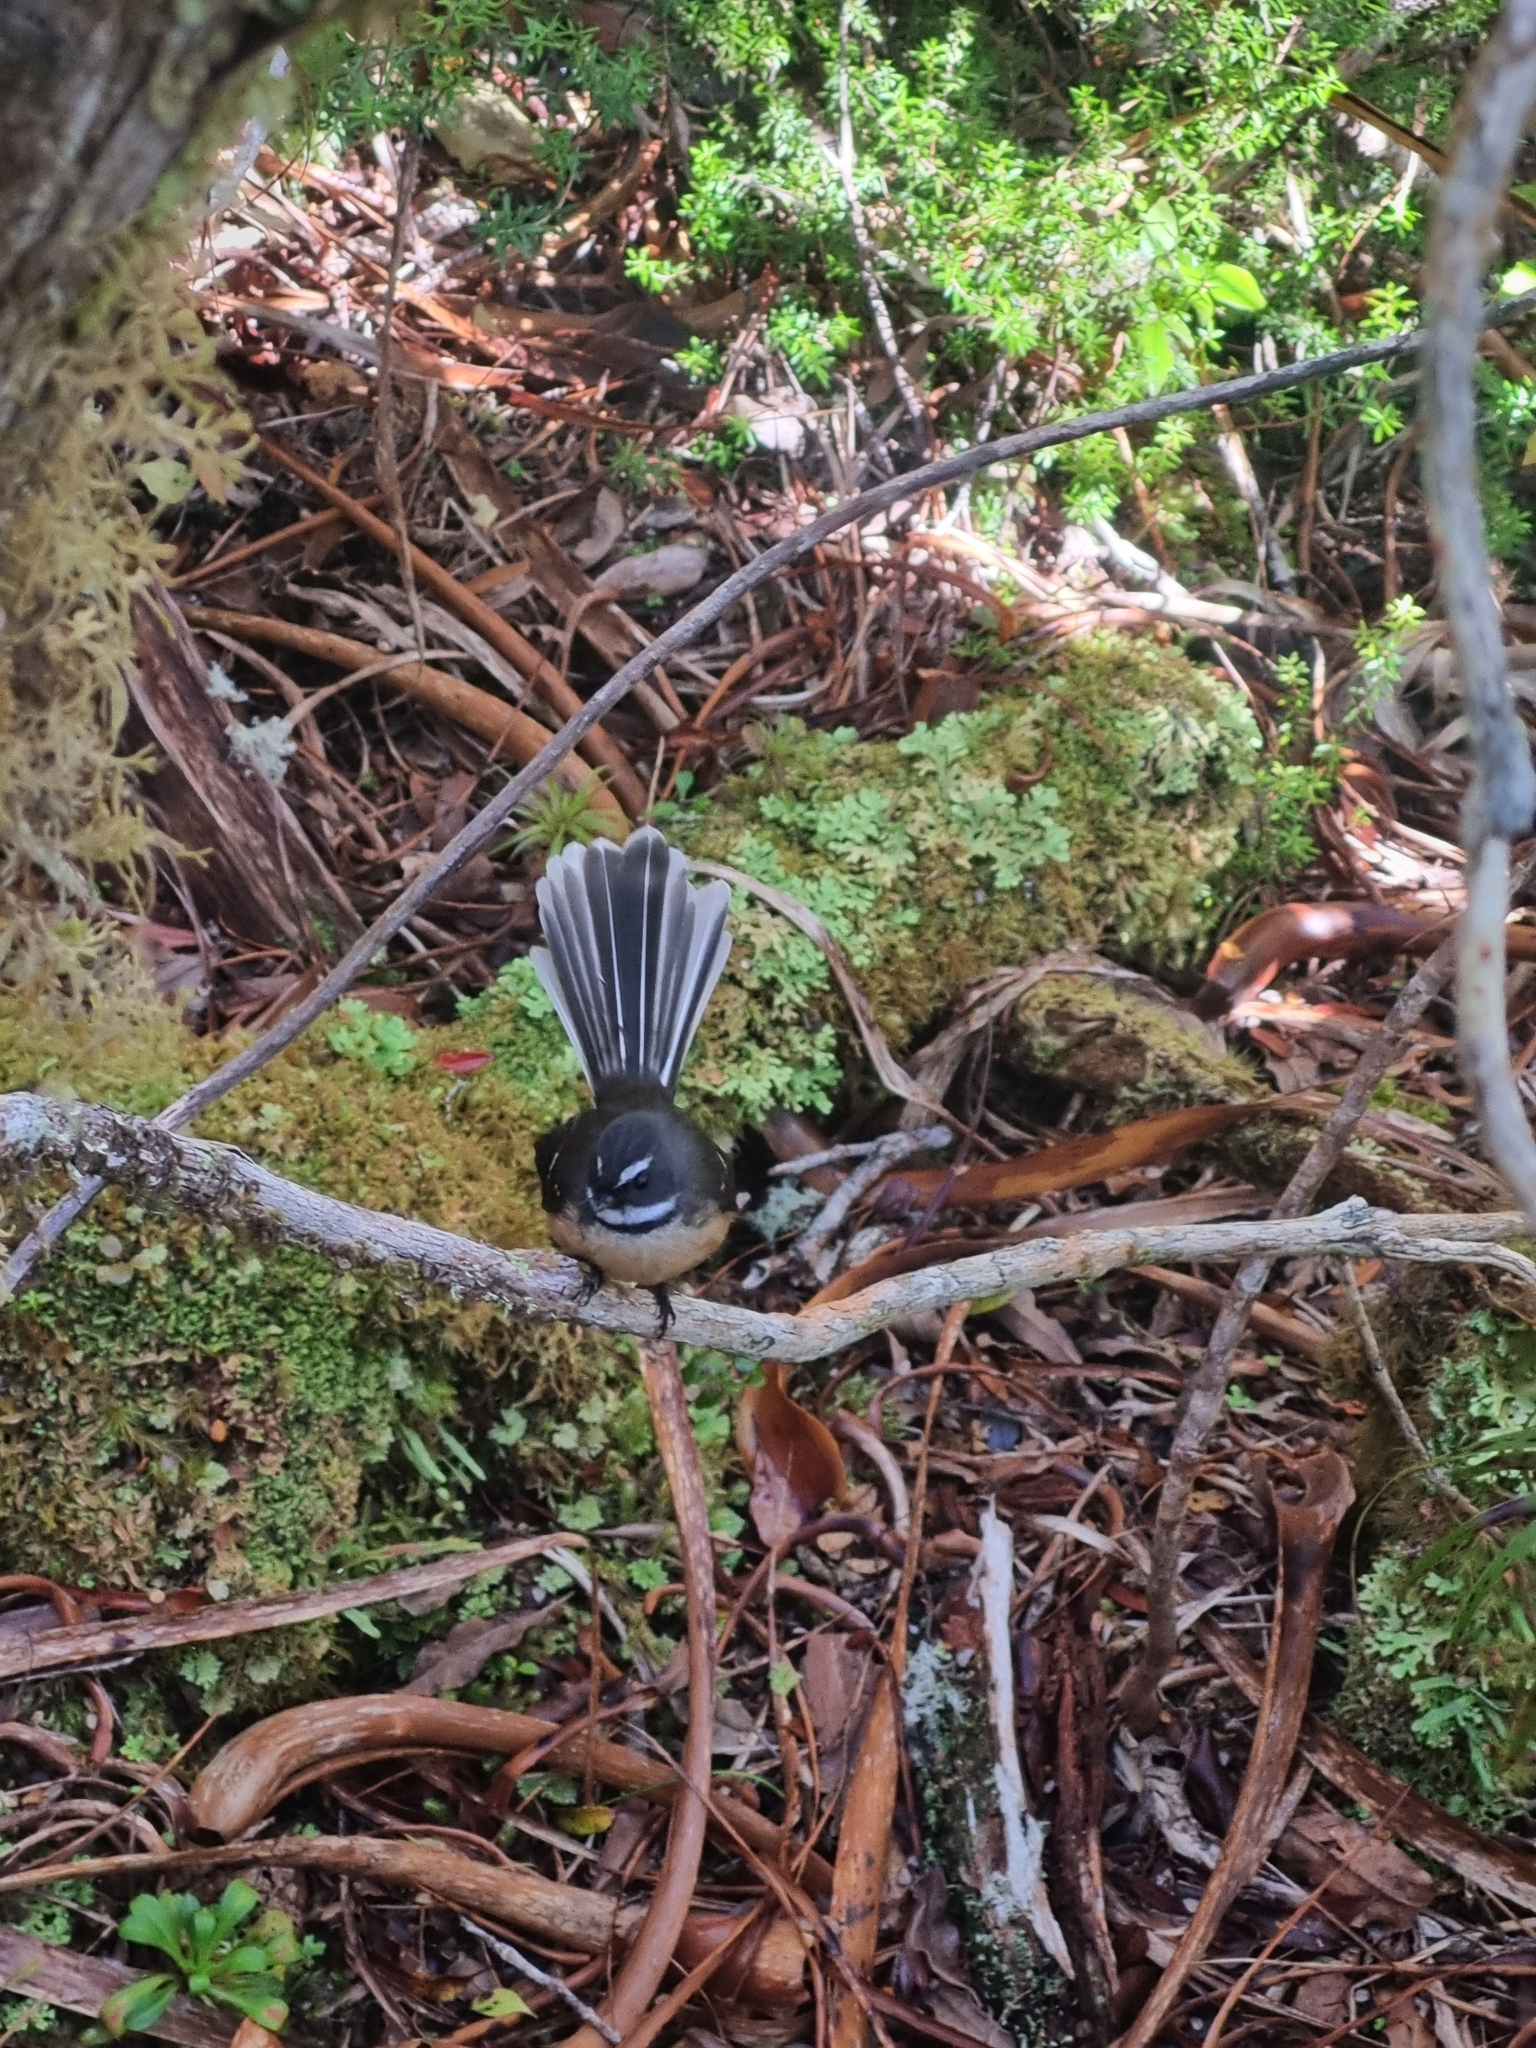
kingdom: Animalia
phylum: Chordata
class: Aves
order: Passeriformes
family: Rhipiduridae
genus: Rhipidura
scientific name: Rhipidura fuliginosa
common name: New zealand fantail
